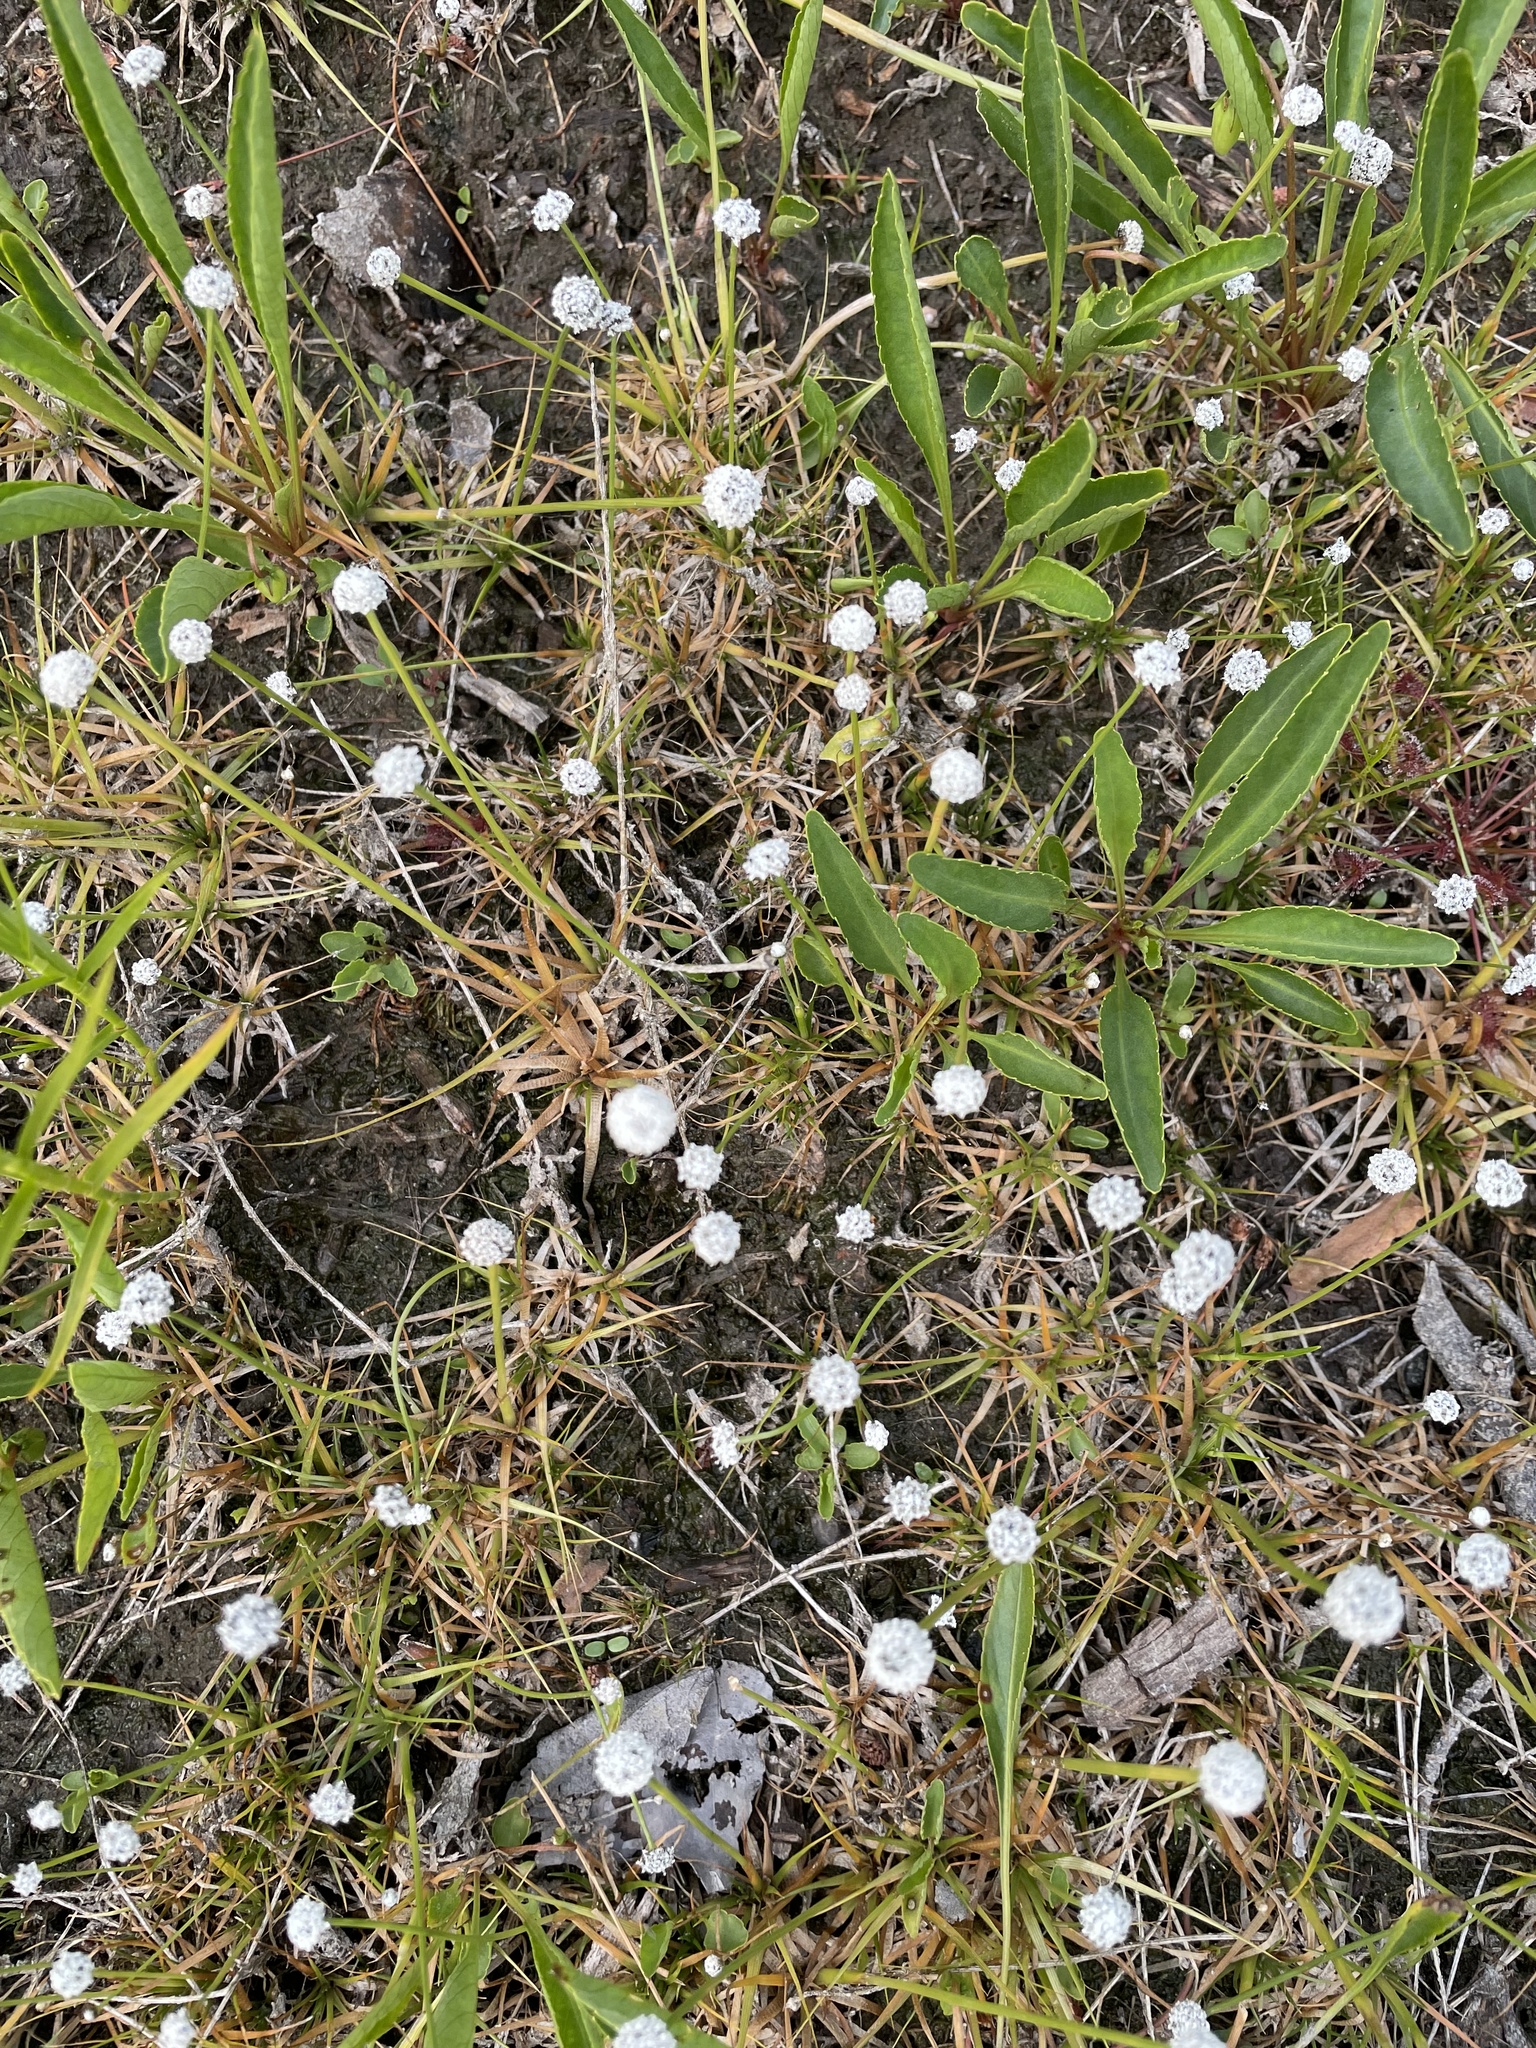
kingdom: Plantae
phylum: Tracheophyta
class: Liliopsida
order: Poales
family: Eriocaulaceae
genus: Eriocaulon
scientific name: Eriocaulon aquaticum
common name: Pipewort
